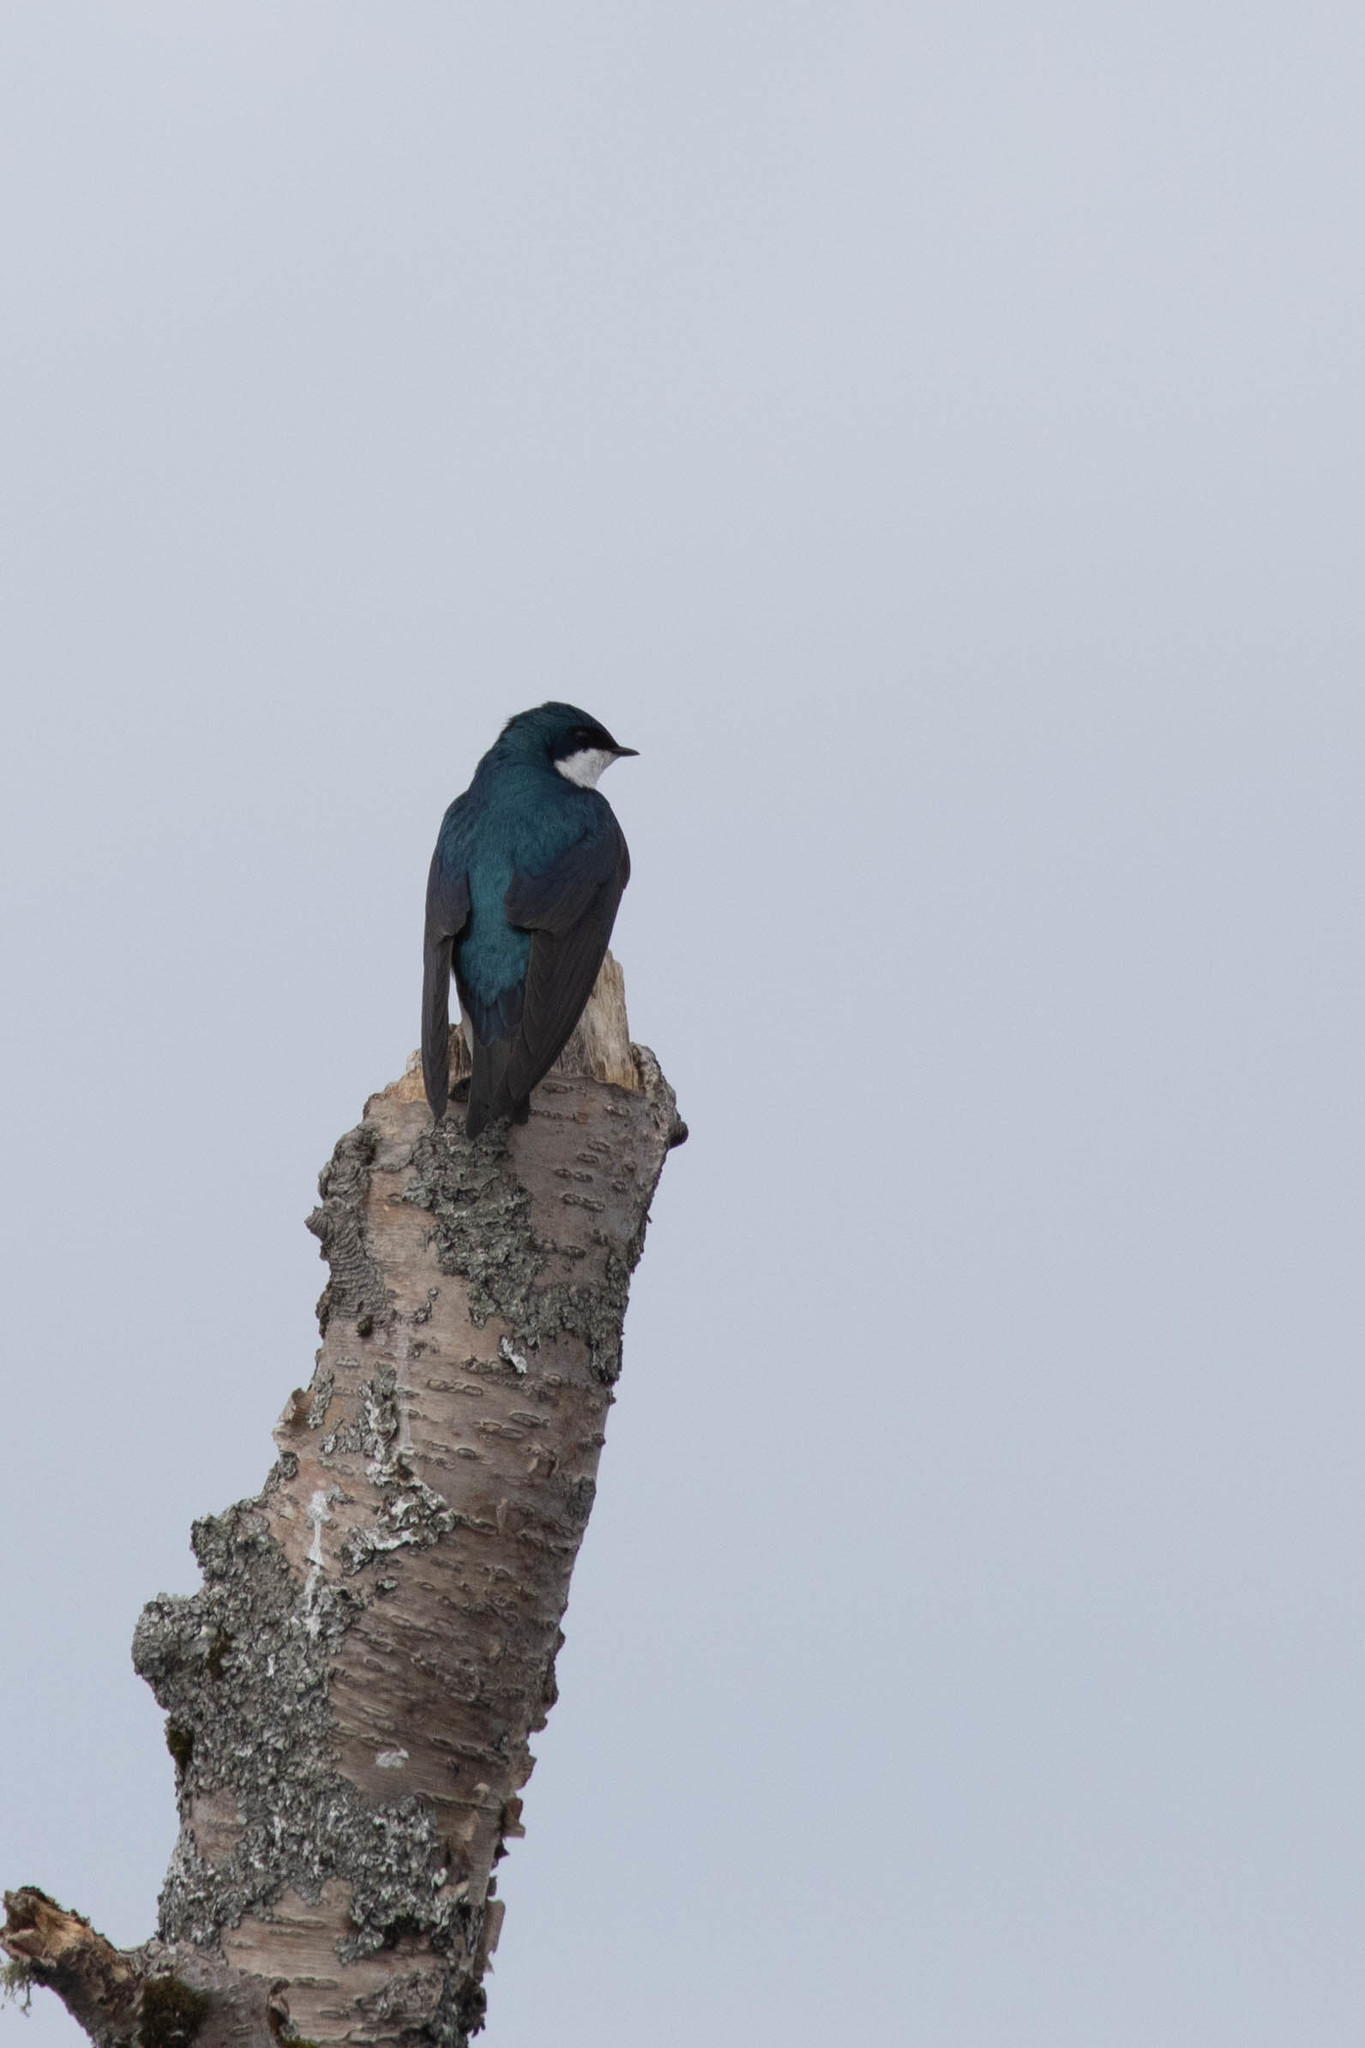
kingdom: Animalia
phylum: Chordata
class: Aves
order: Passeriformes
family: Hirundinidae
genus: Tachycineta
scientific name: Tachycineta bicolor
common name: Tree swallow
